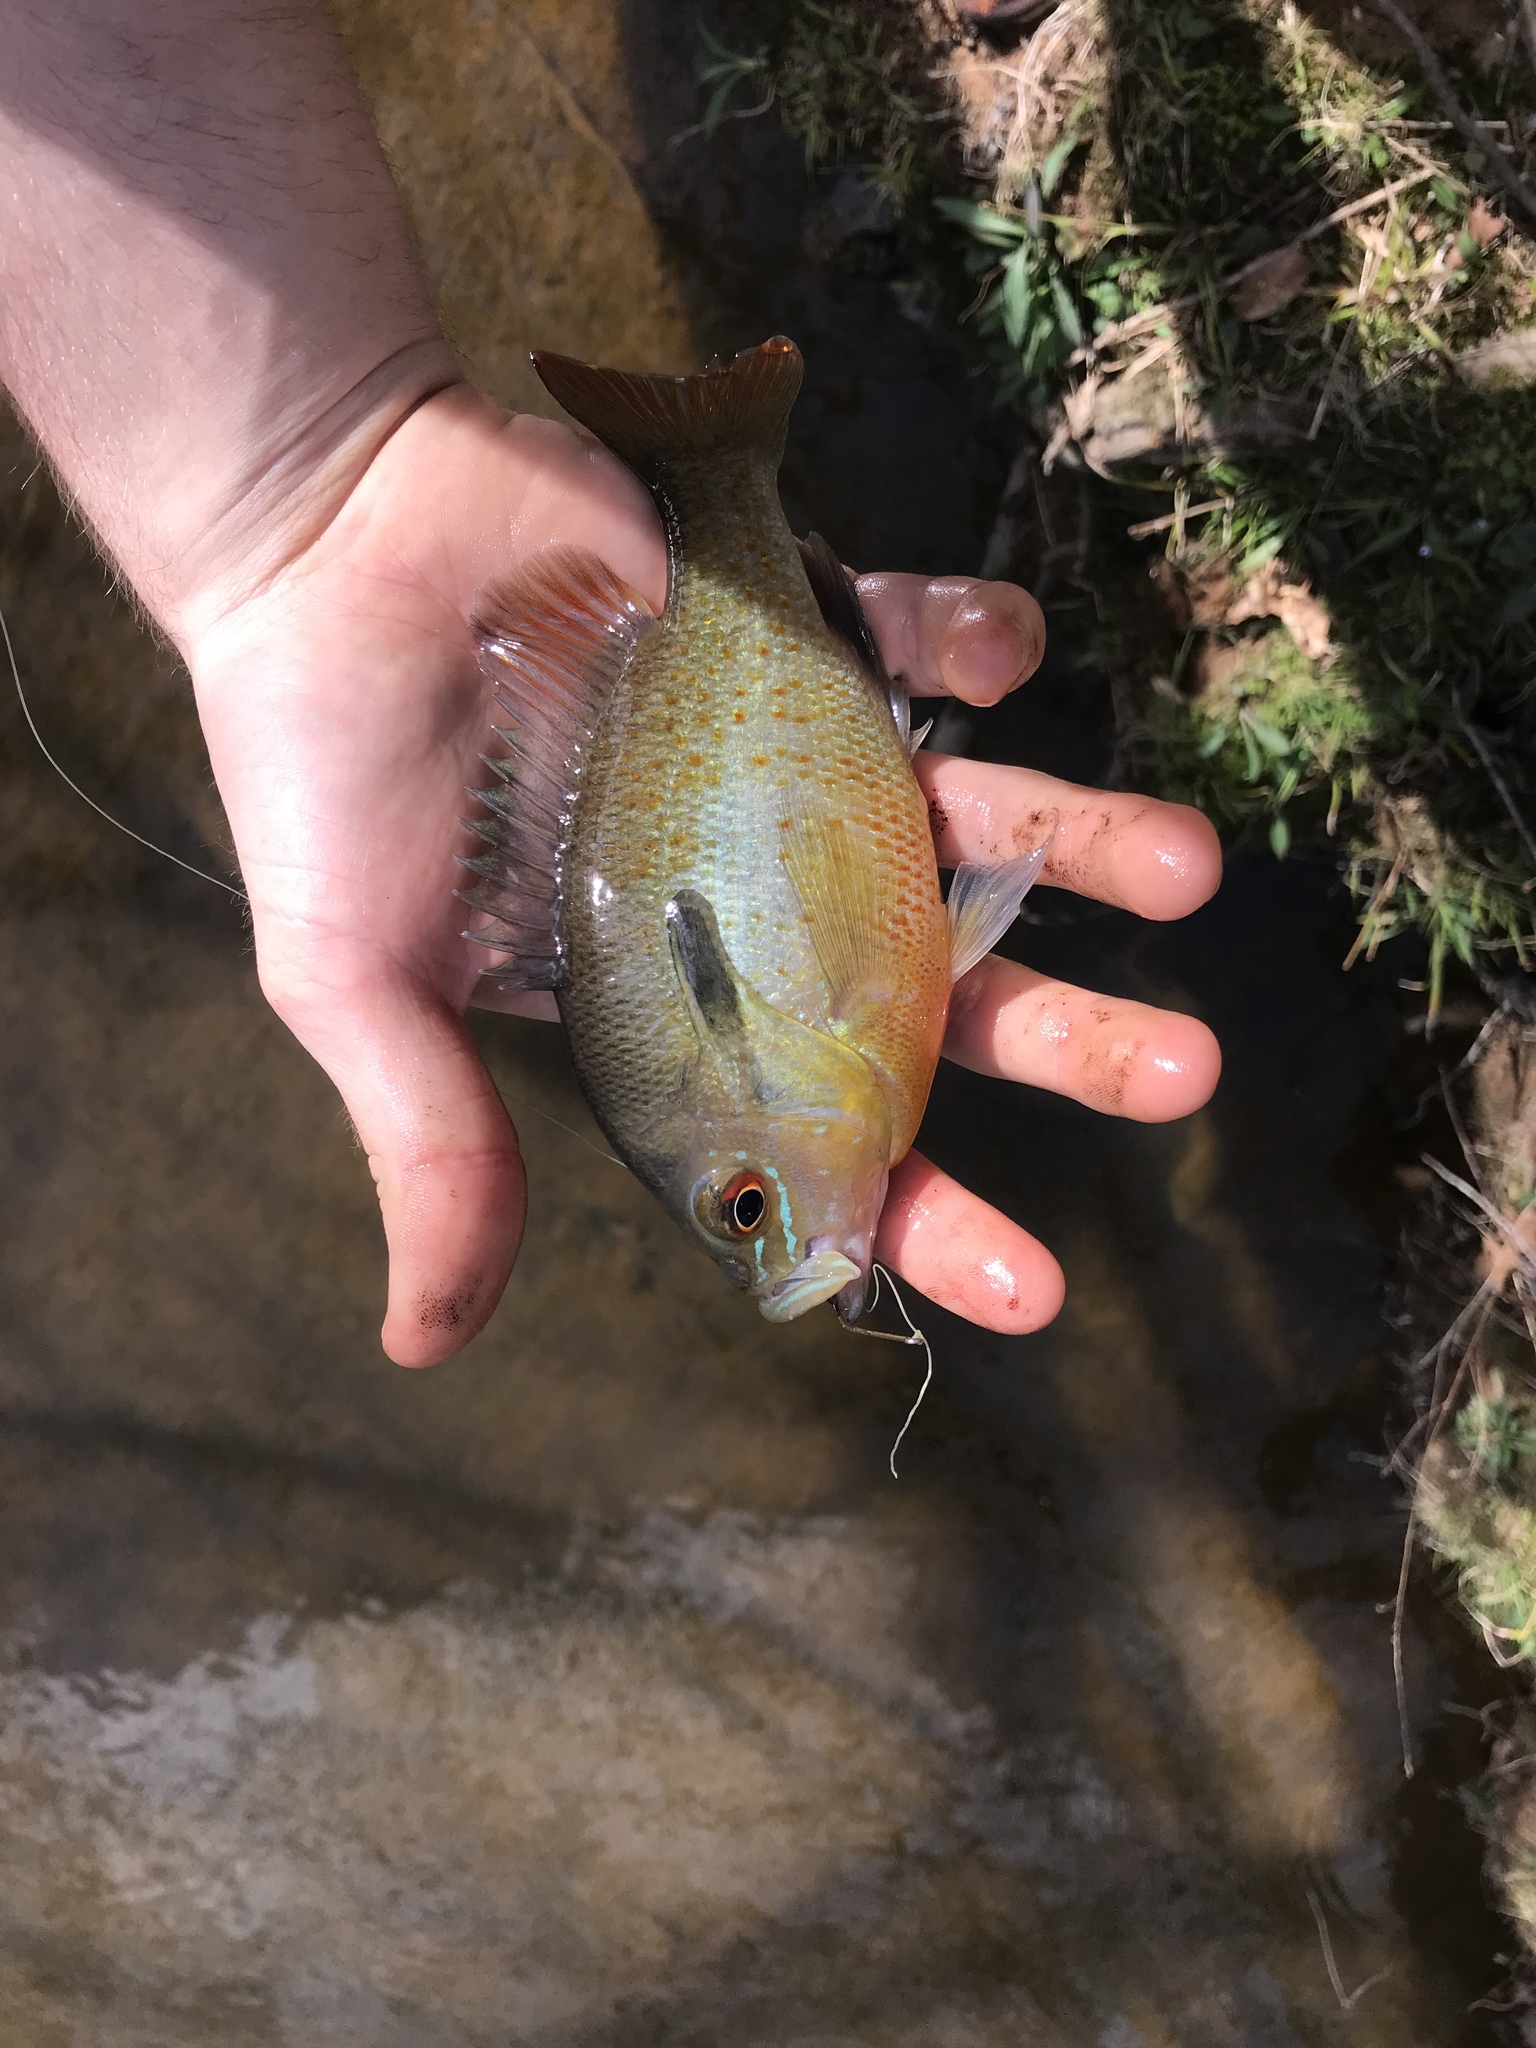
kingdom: Animalia
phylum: Chordata
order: Perciformes
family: Centrarchidae
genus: Lepomis
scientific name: Lepomis auritus
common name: Redbreast sunfish
